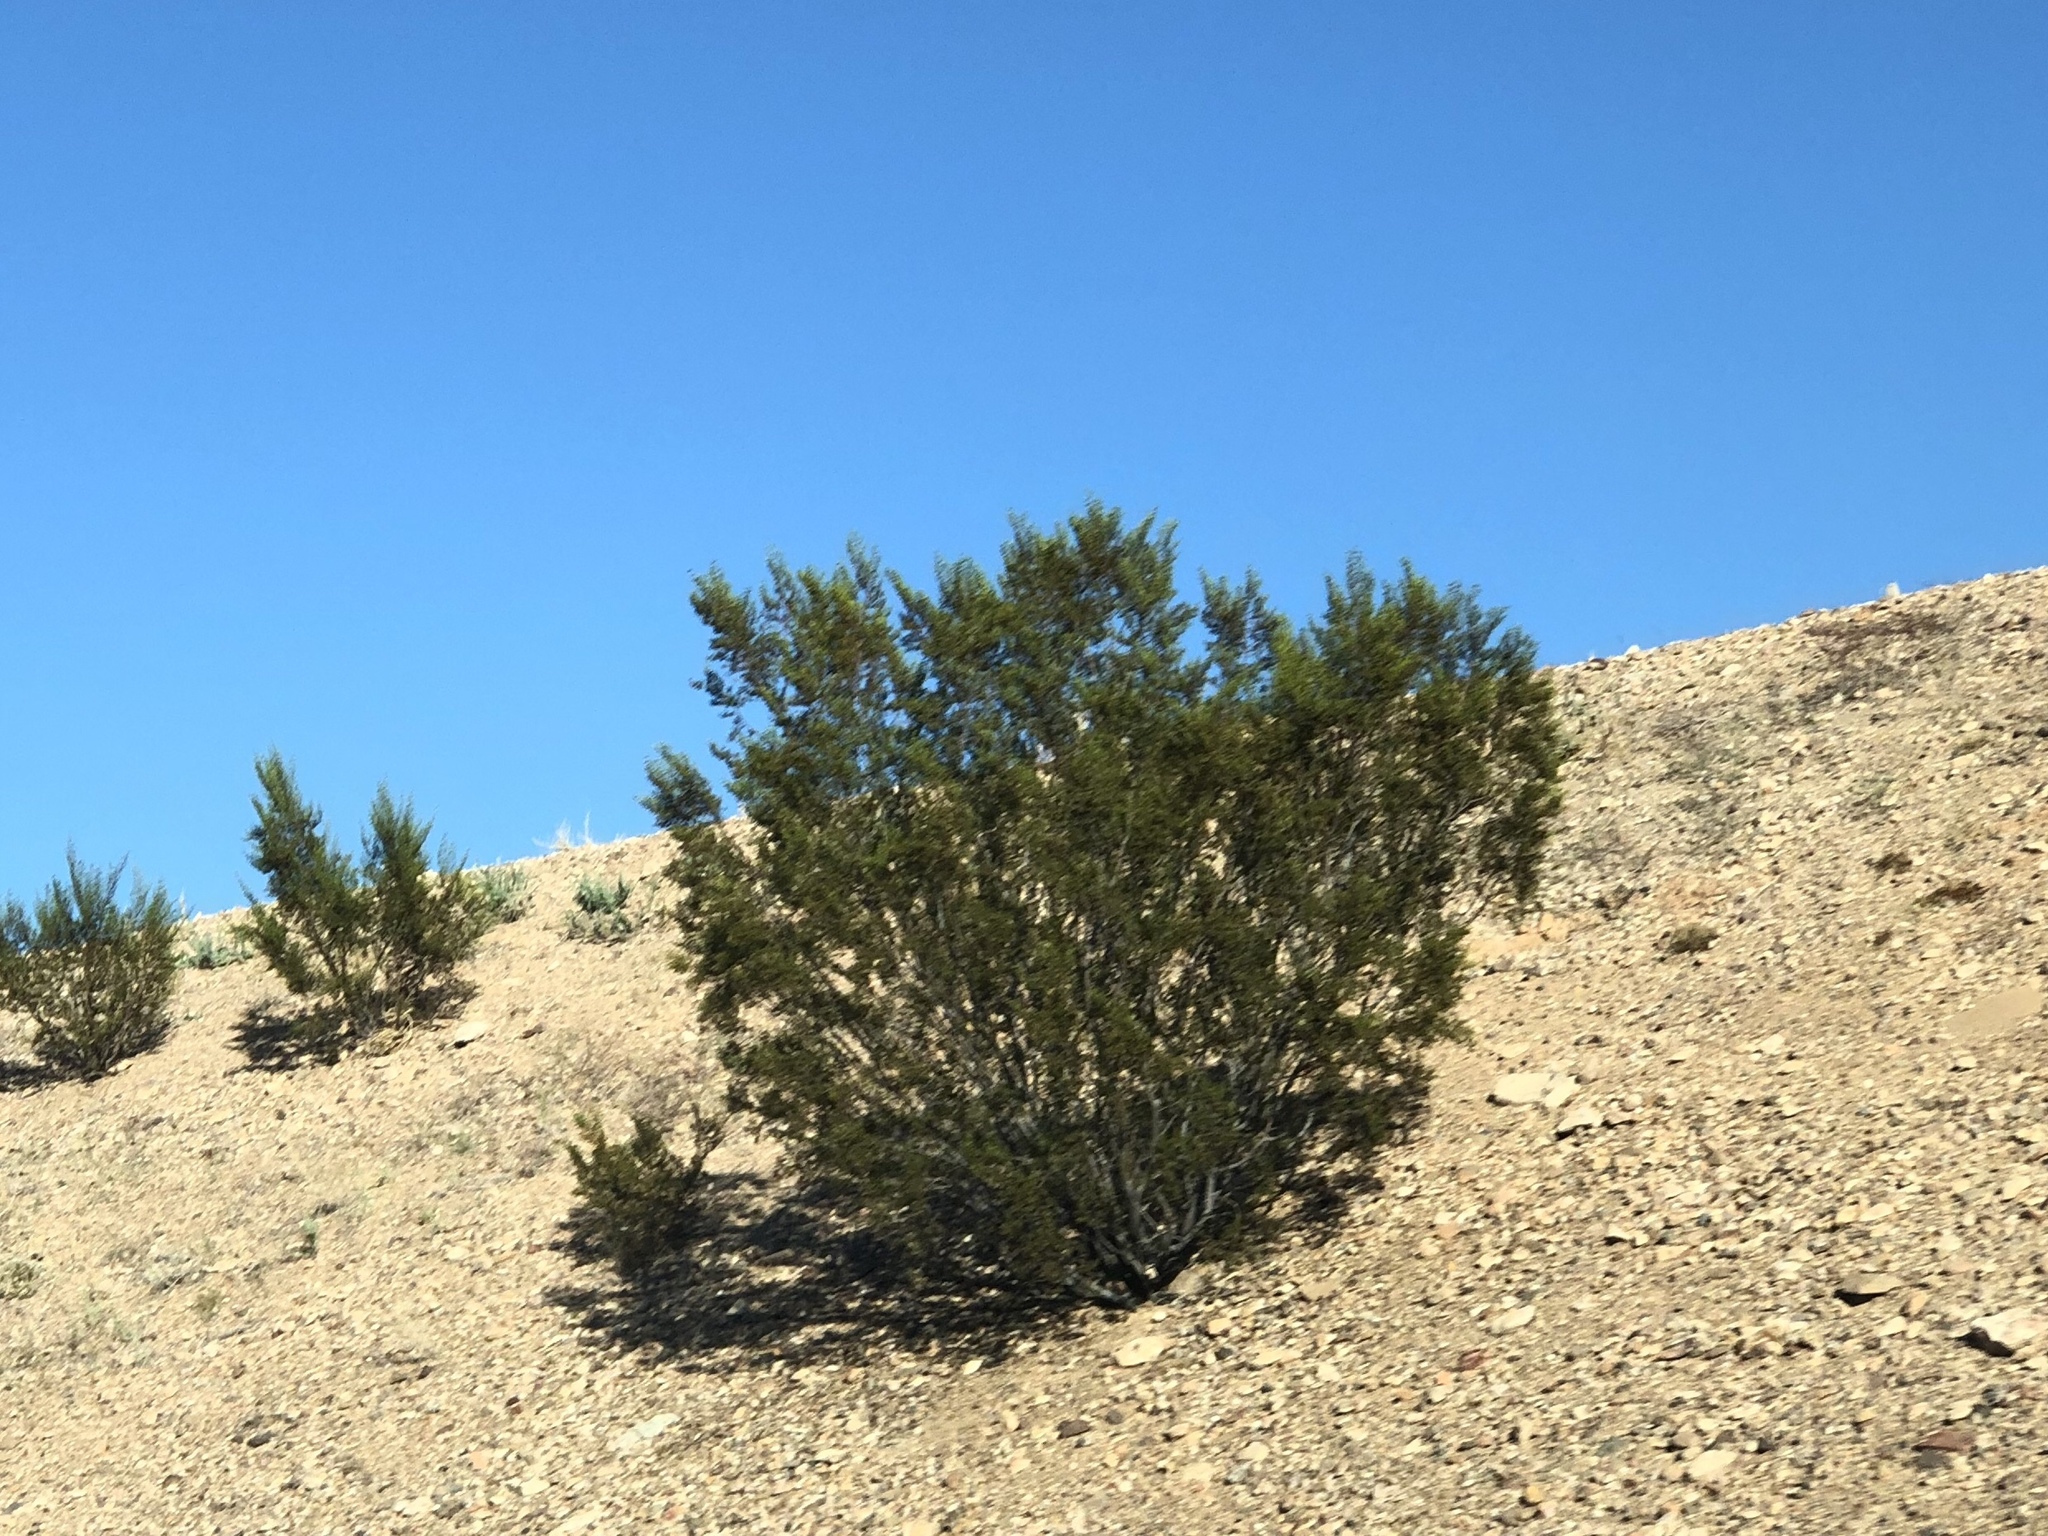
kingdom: Plantae
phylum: Tracheophyta
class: Magnoliopsida
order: Zygophyllales
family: Zygophyllaceae
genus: Larrea
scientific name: Larrea tridentata
